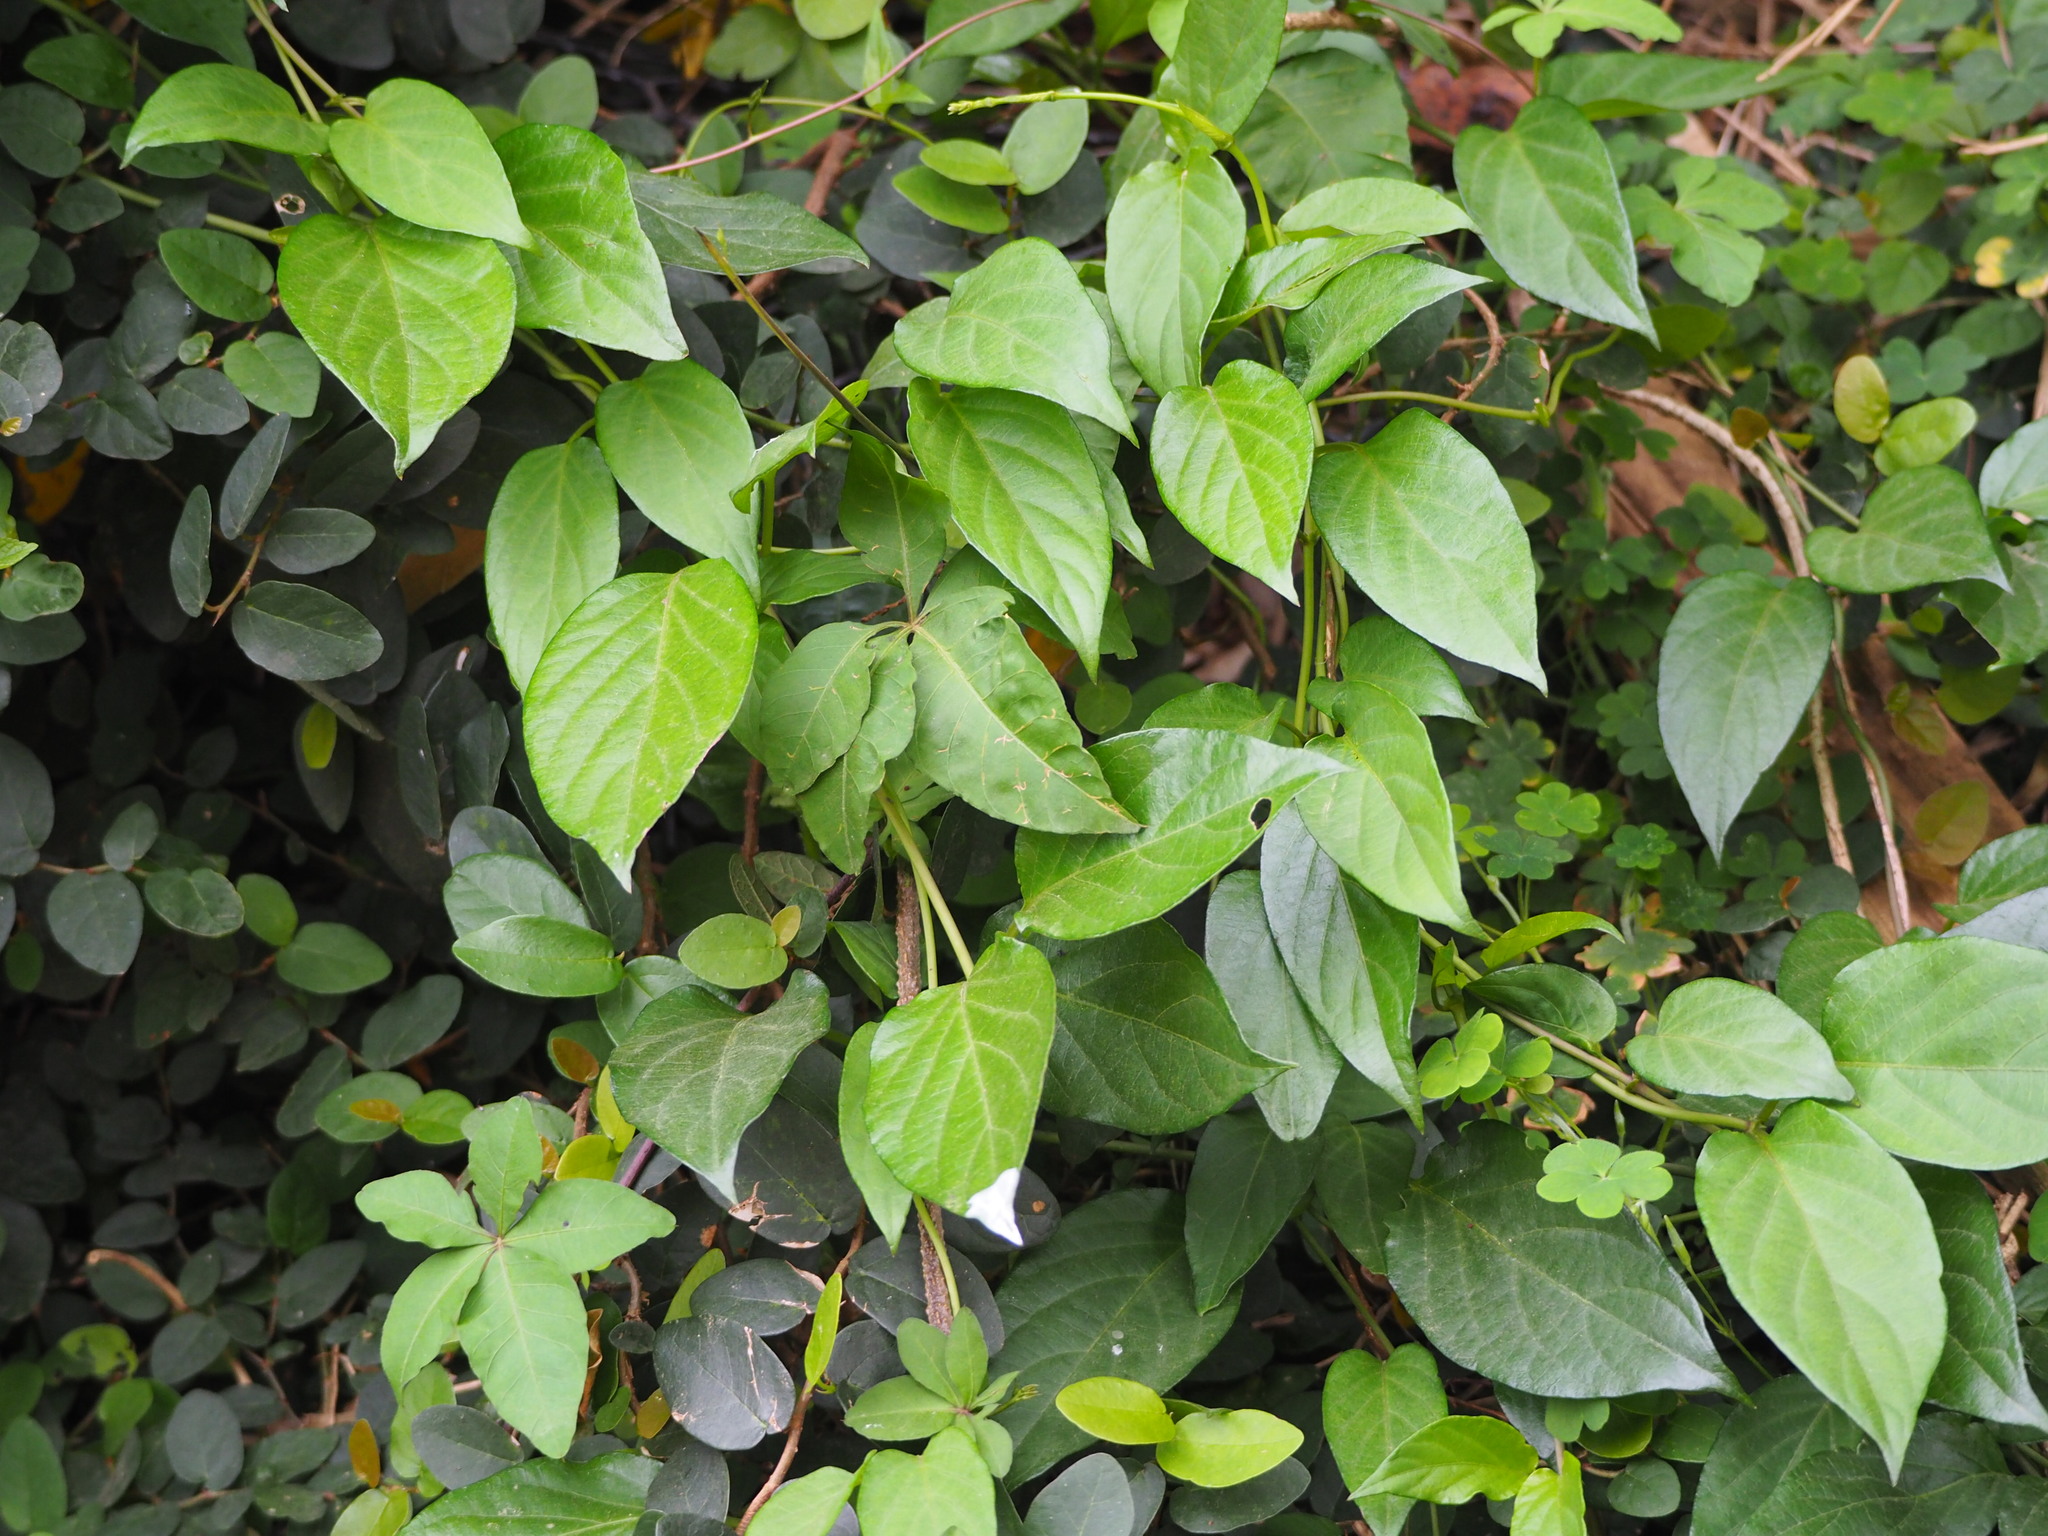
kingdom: Plantae
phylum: Tracheophyta
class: Magnoliopsida
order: Gentianales
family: Rubiaceae
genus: Paederia
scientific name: Paederia foetida
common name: Stinkvine
